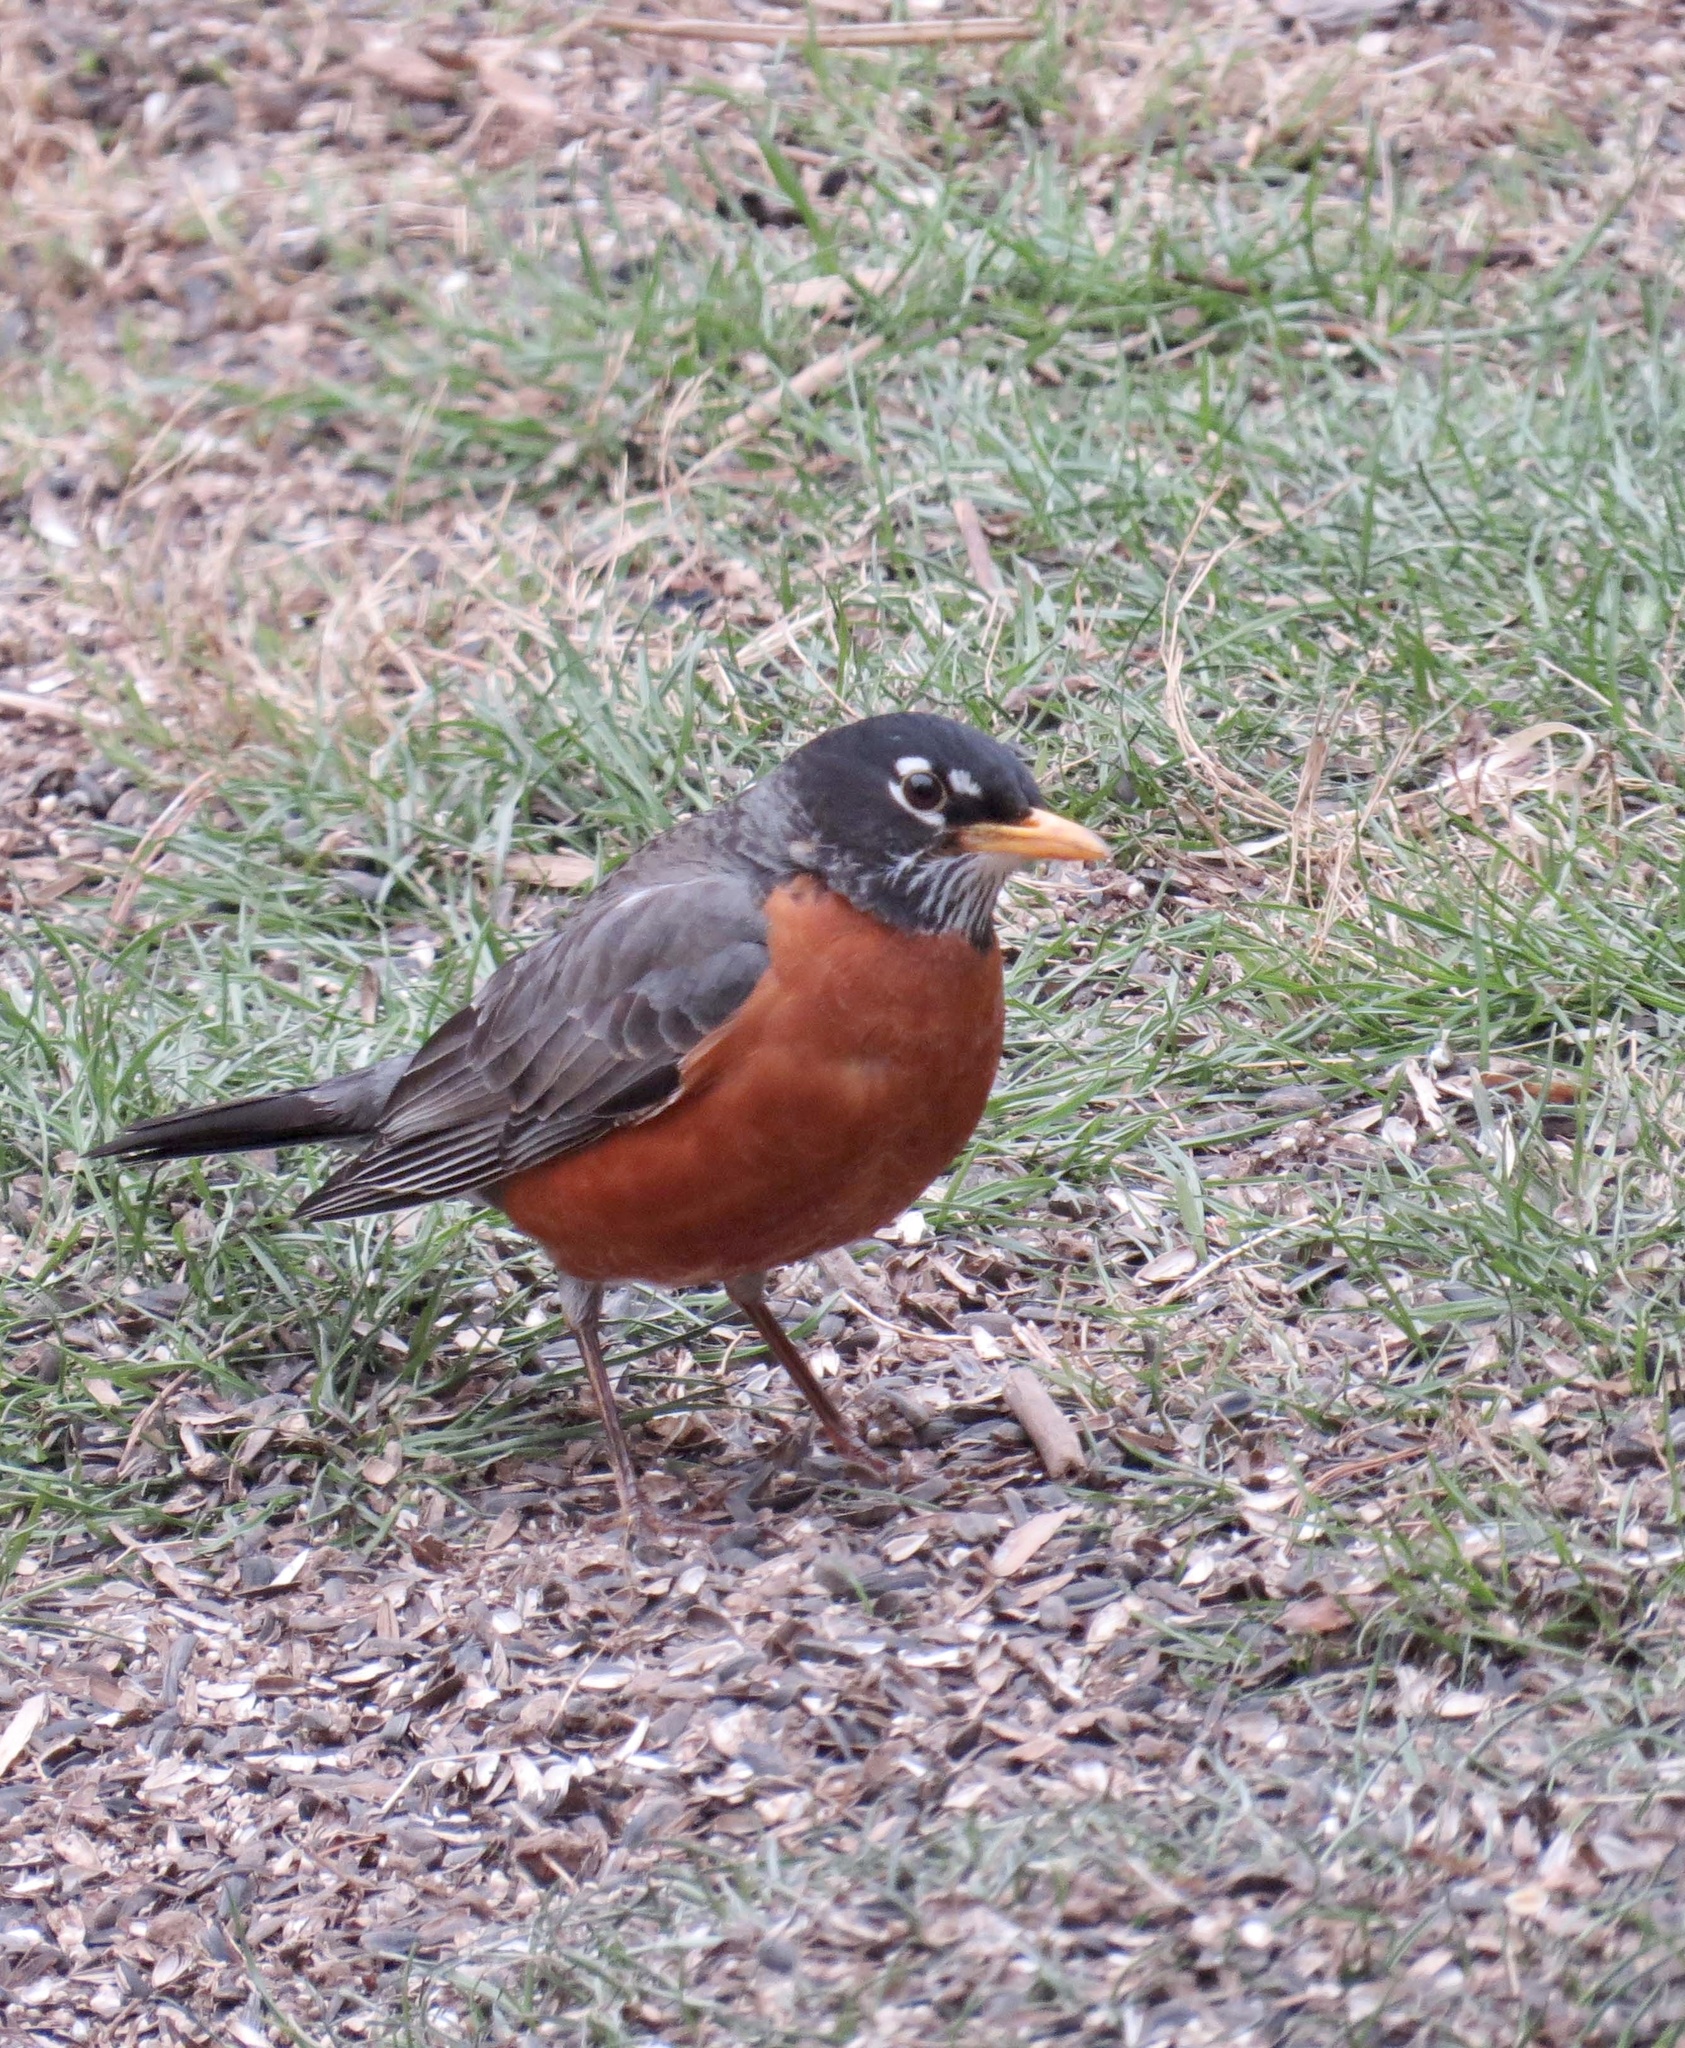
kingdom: Animalia
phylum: Chordata
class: Aves
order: Passeriformes
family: Turdidae
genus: Turdus
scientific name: Turdus migratorius
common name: American robin
